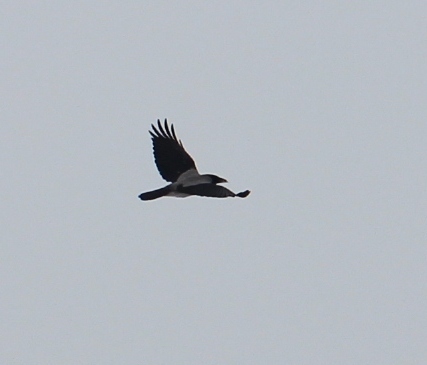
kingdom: Animalia
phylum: Chordata
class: Aves
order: Passeriformes
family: Corvidae
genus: Corvus
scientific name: Corvus cornix
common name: Hooded crow
